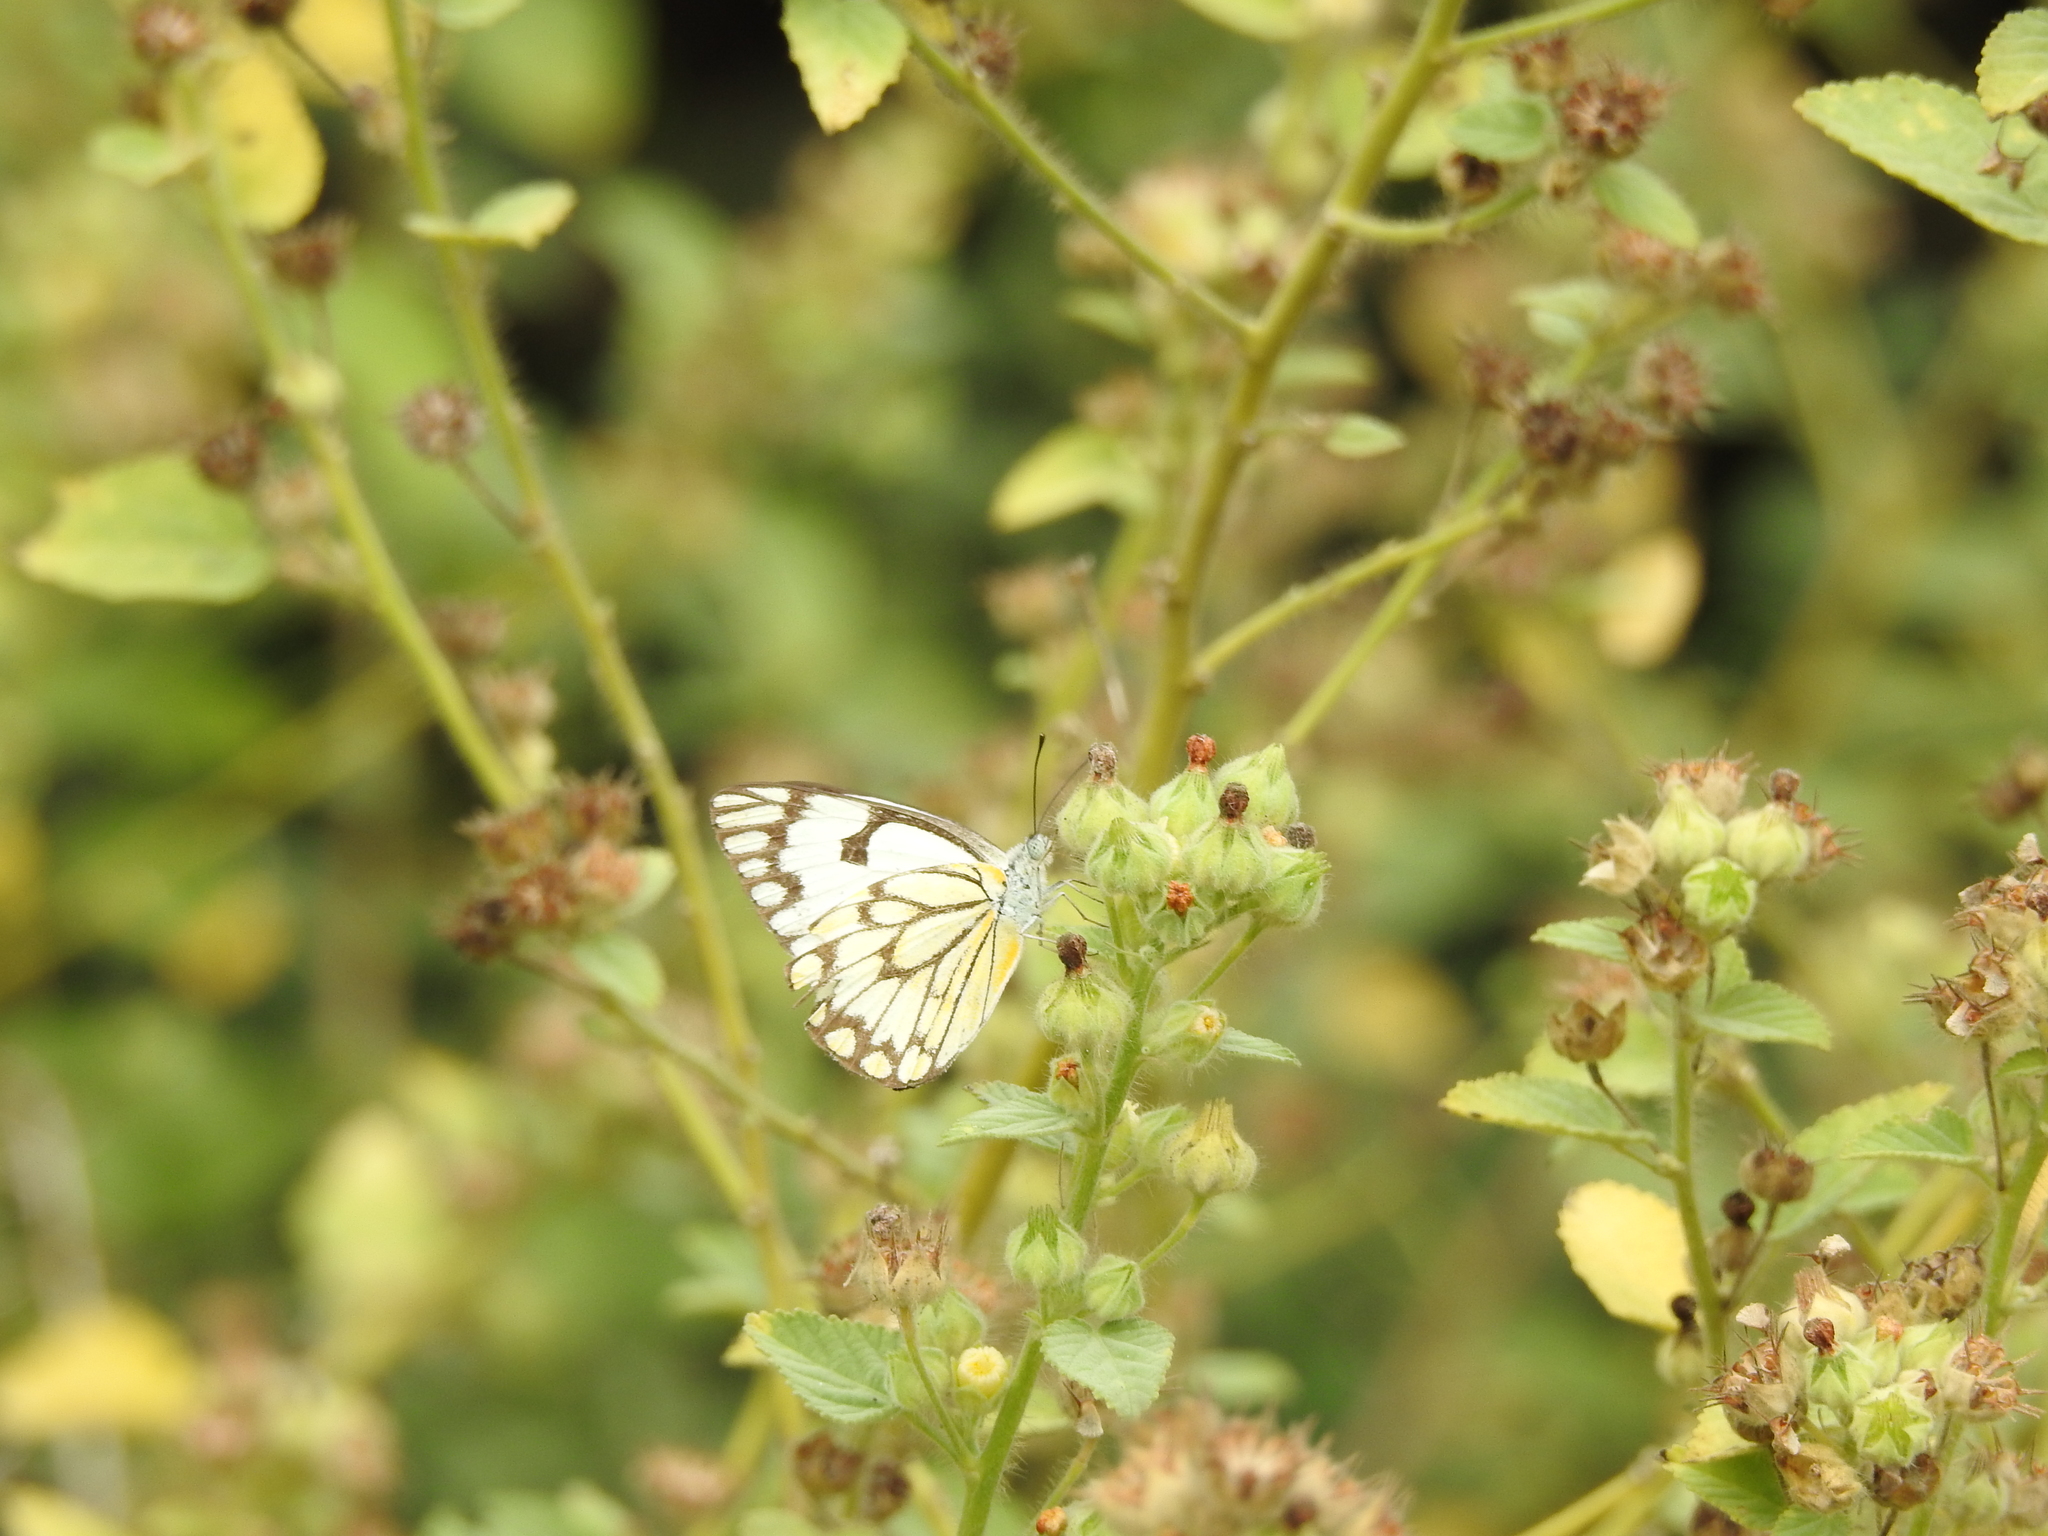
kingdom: Animalia
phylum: Arthropoda
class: Insecta
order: Lepidoptera
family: Pieridae
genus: Belenois
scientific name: Belenois aurota
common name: Brown-veined white
